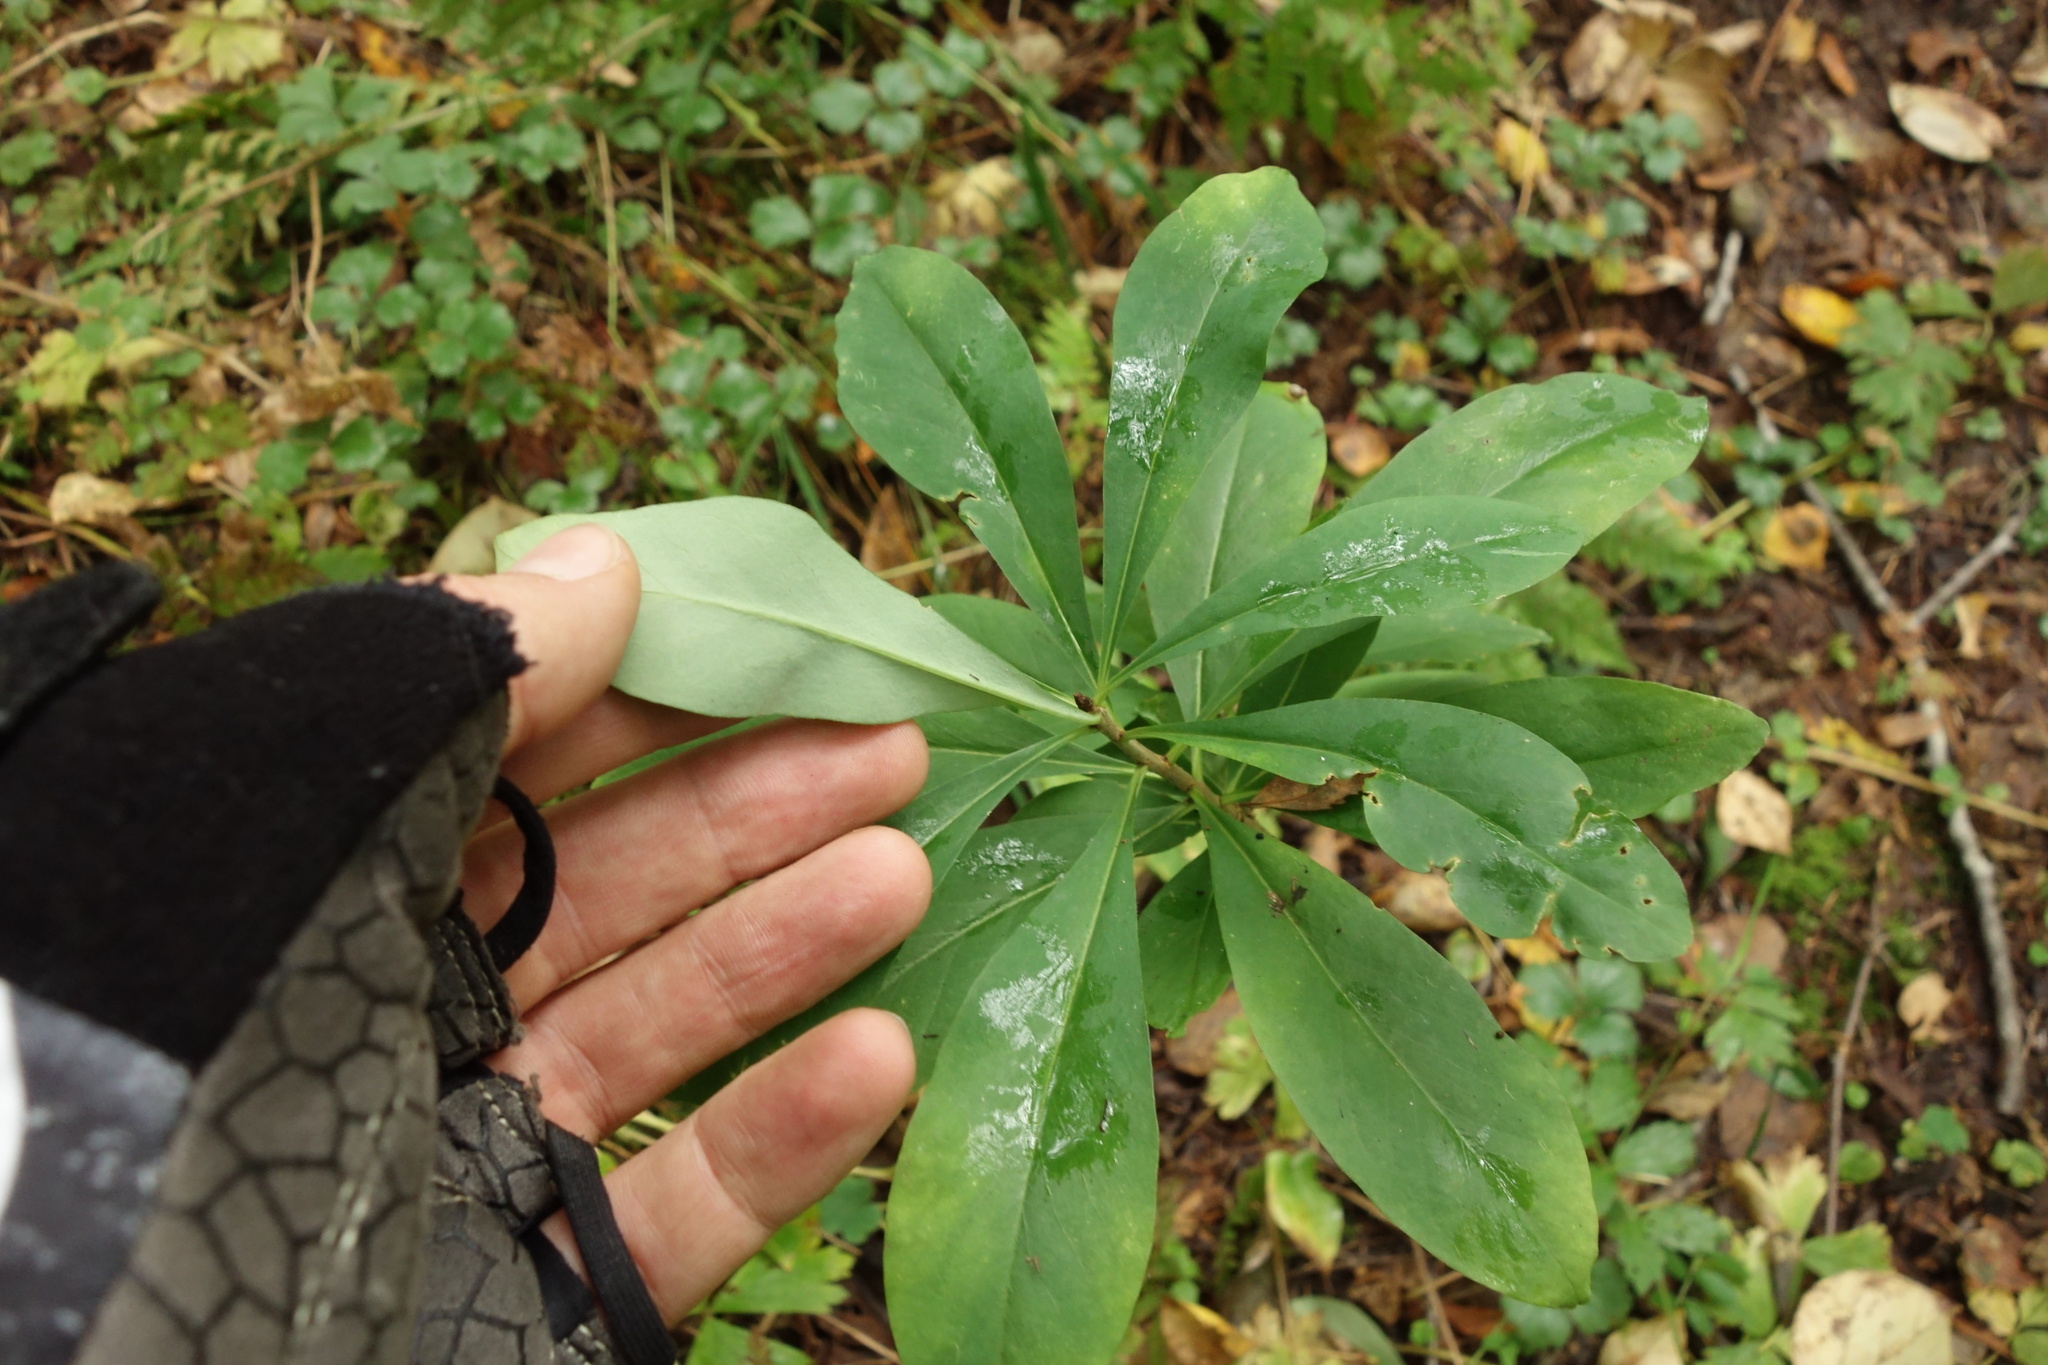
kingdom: Plantae
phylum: Tracheophyta
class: Magnoliopsida
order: Malvales
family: Thymelaeaceae
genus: Daphne
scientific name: Daphne mezereum
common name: Mezereon
